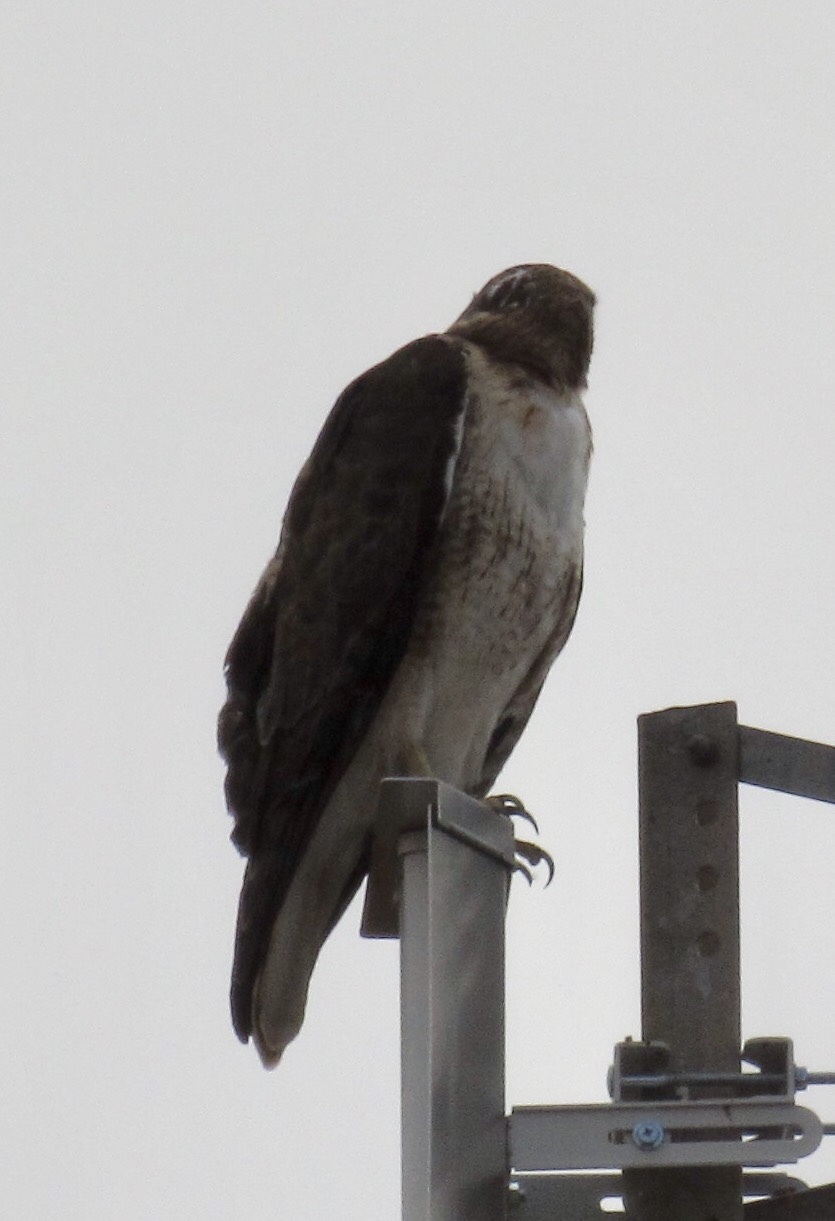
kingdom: Animalia
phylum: Chordata
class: Aves
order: Accipitriformes
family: Accipitridae
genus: Buteo
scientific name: Buteo jamaicensis
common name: Red-tailed hawk
